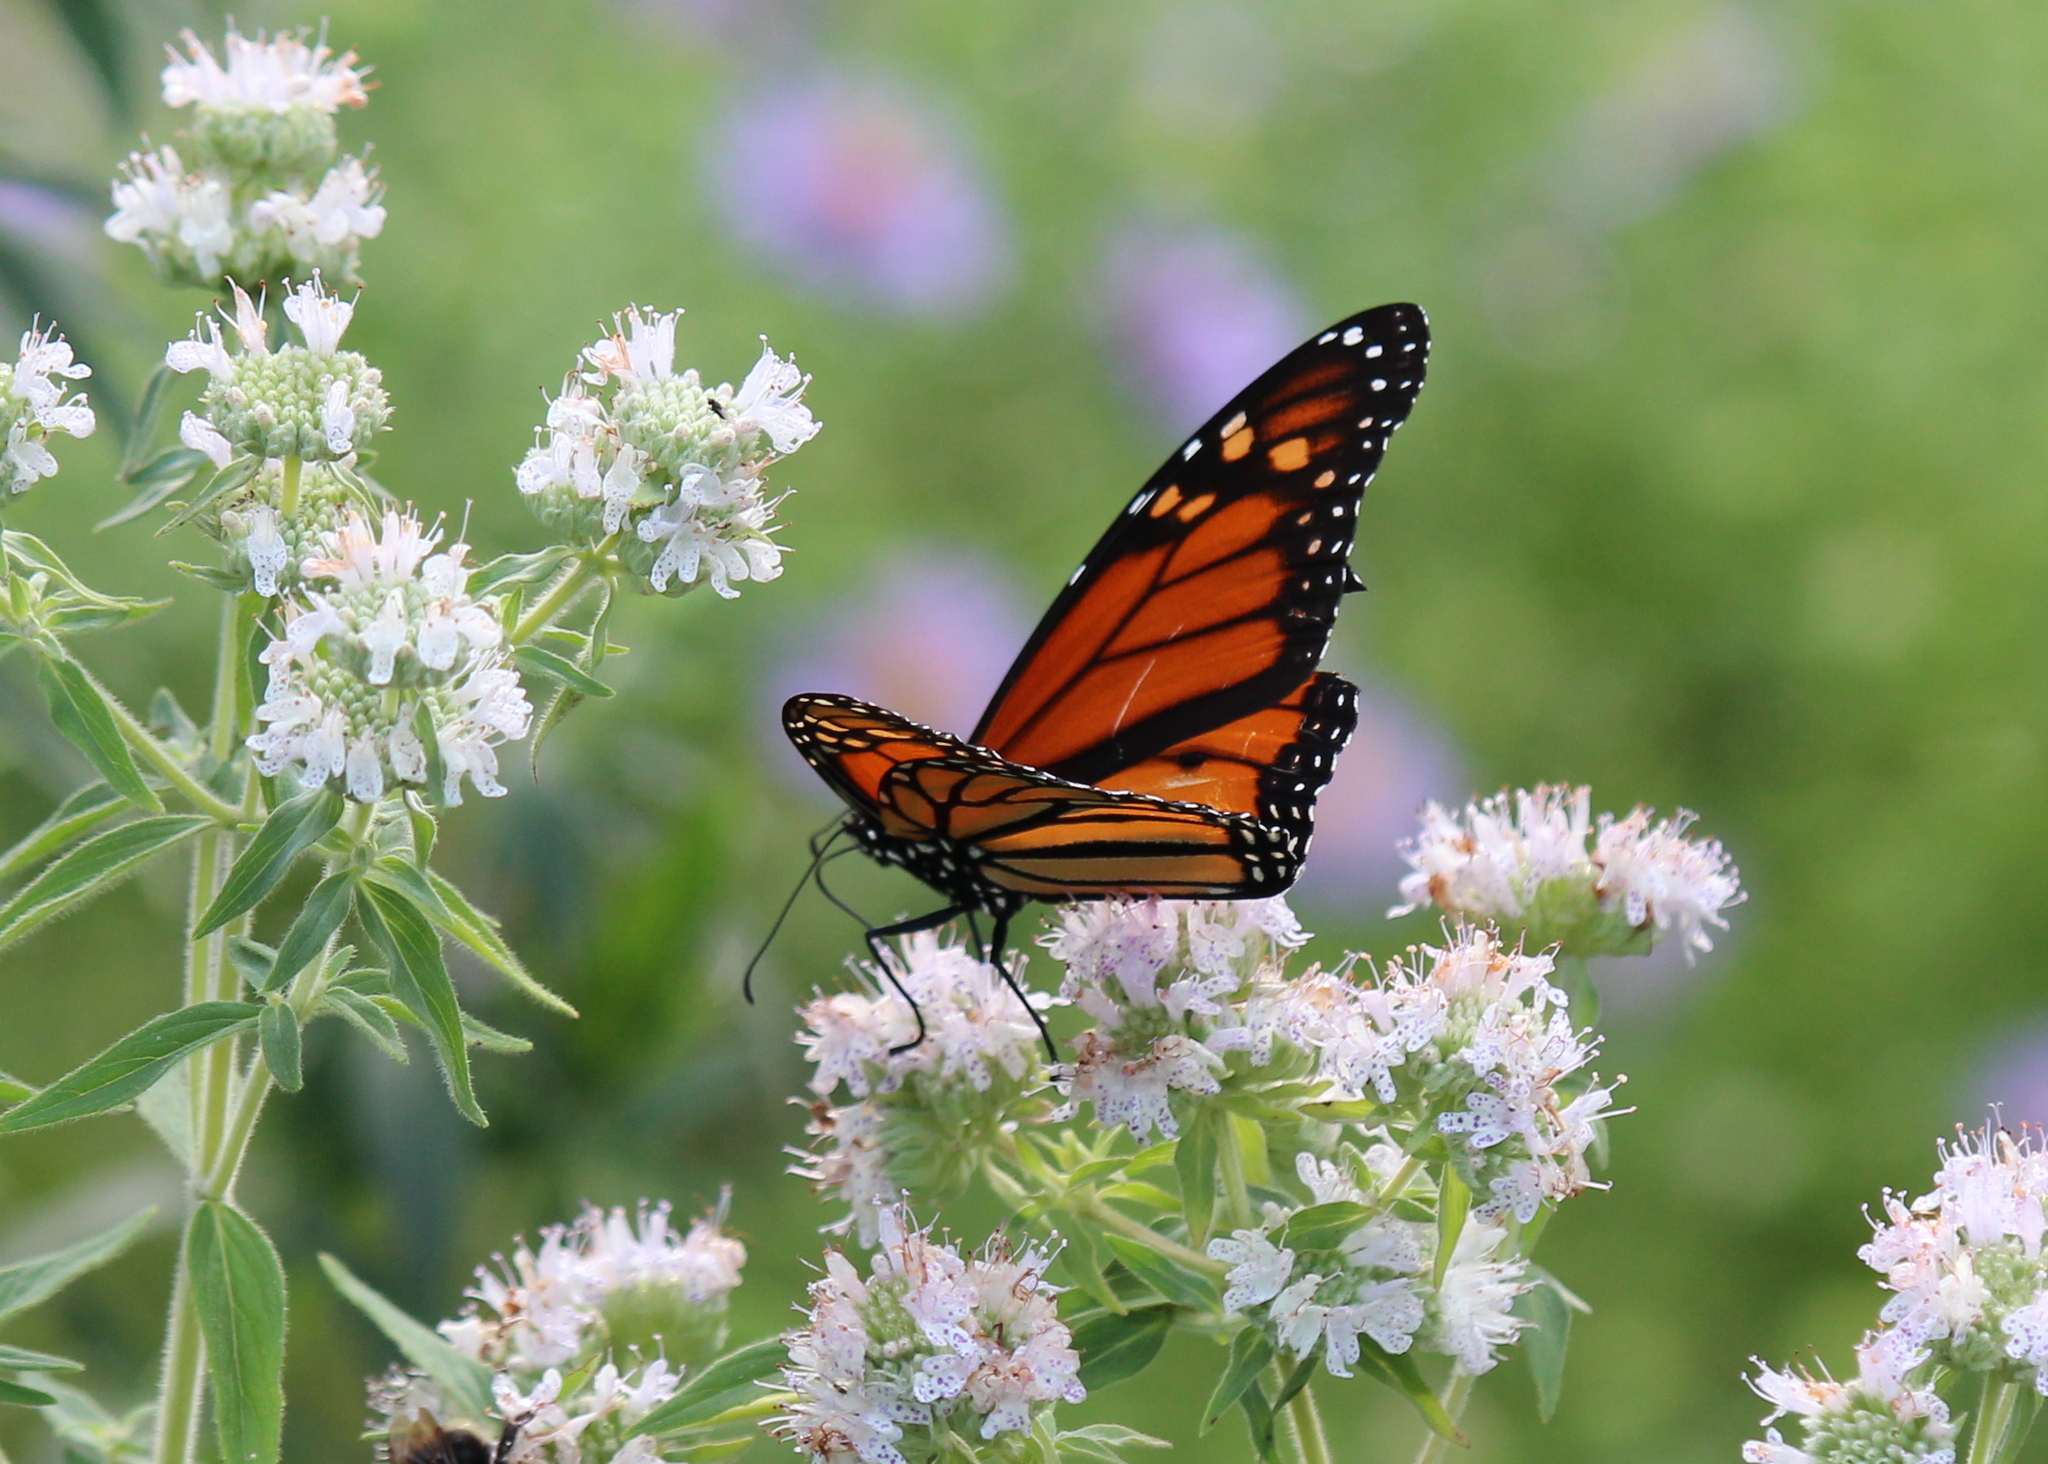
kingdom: Animalia
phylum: Arthropoda
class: Insecta
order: Lepidoptera
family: Nymphalidae
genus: Danaus
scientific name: Danaus plexippus
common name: Monarch
